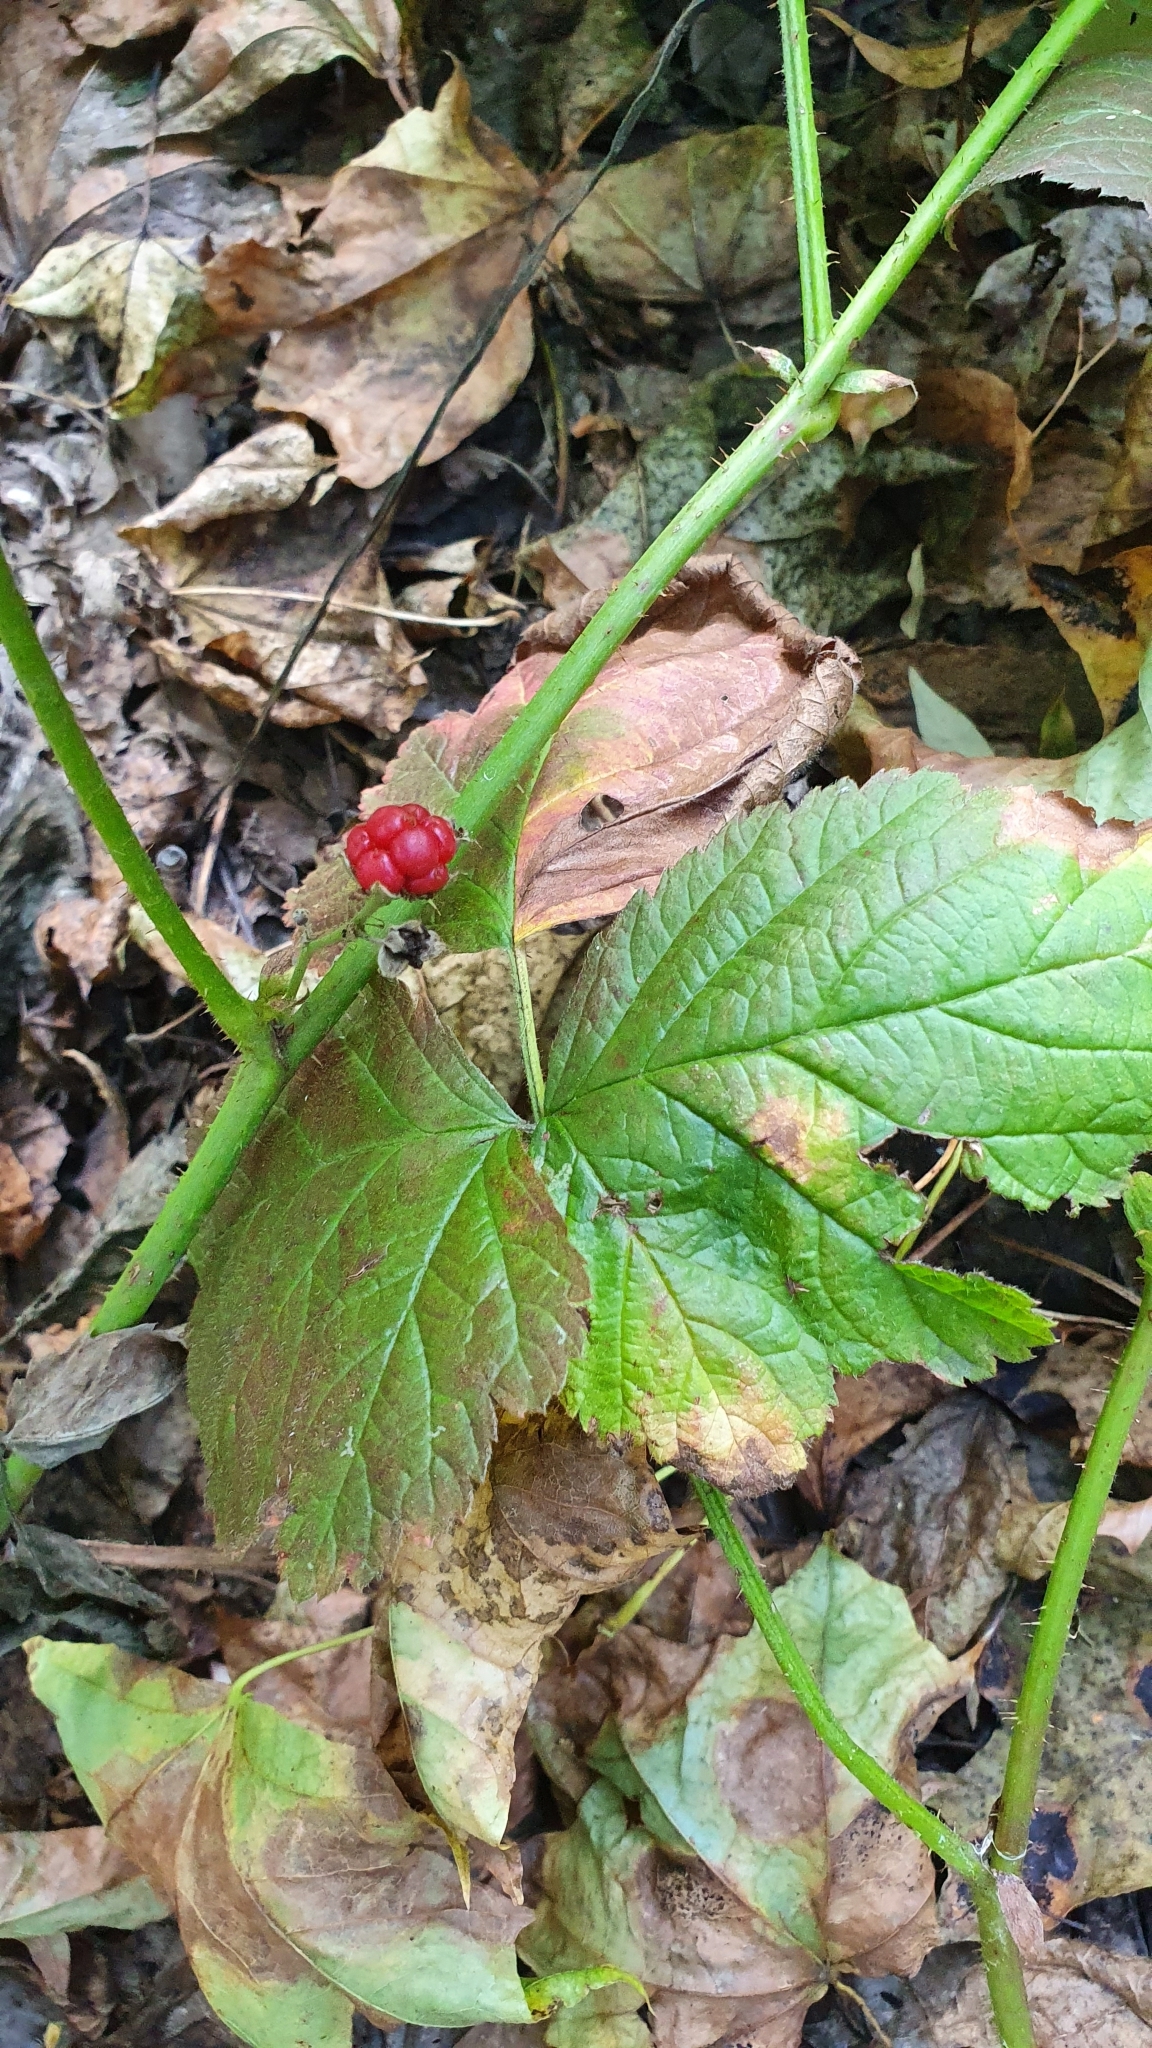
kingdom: Plantae
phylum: Tracheophyta
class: Magnoliopsida
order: Rosales
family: Rosaceae
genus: Rubus
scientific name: Rubus saxatilis
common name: Stone bramble
